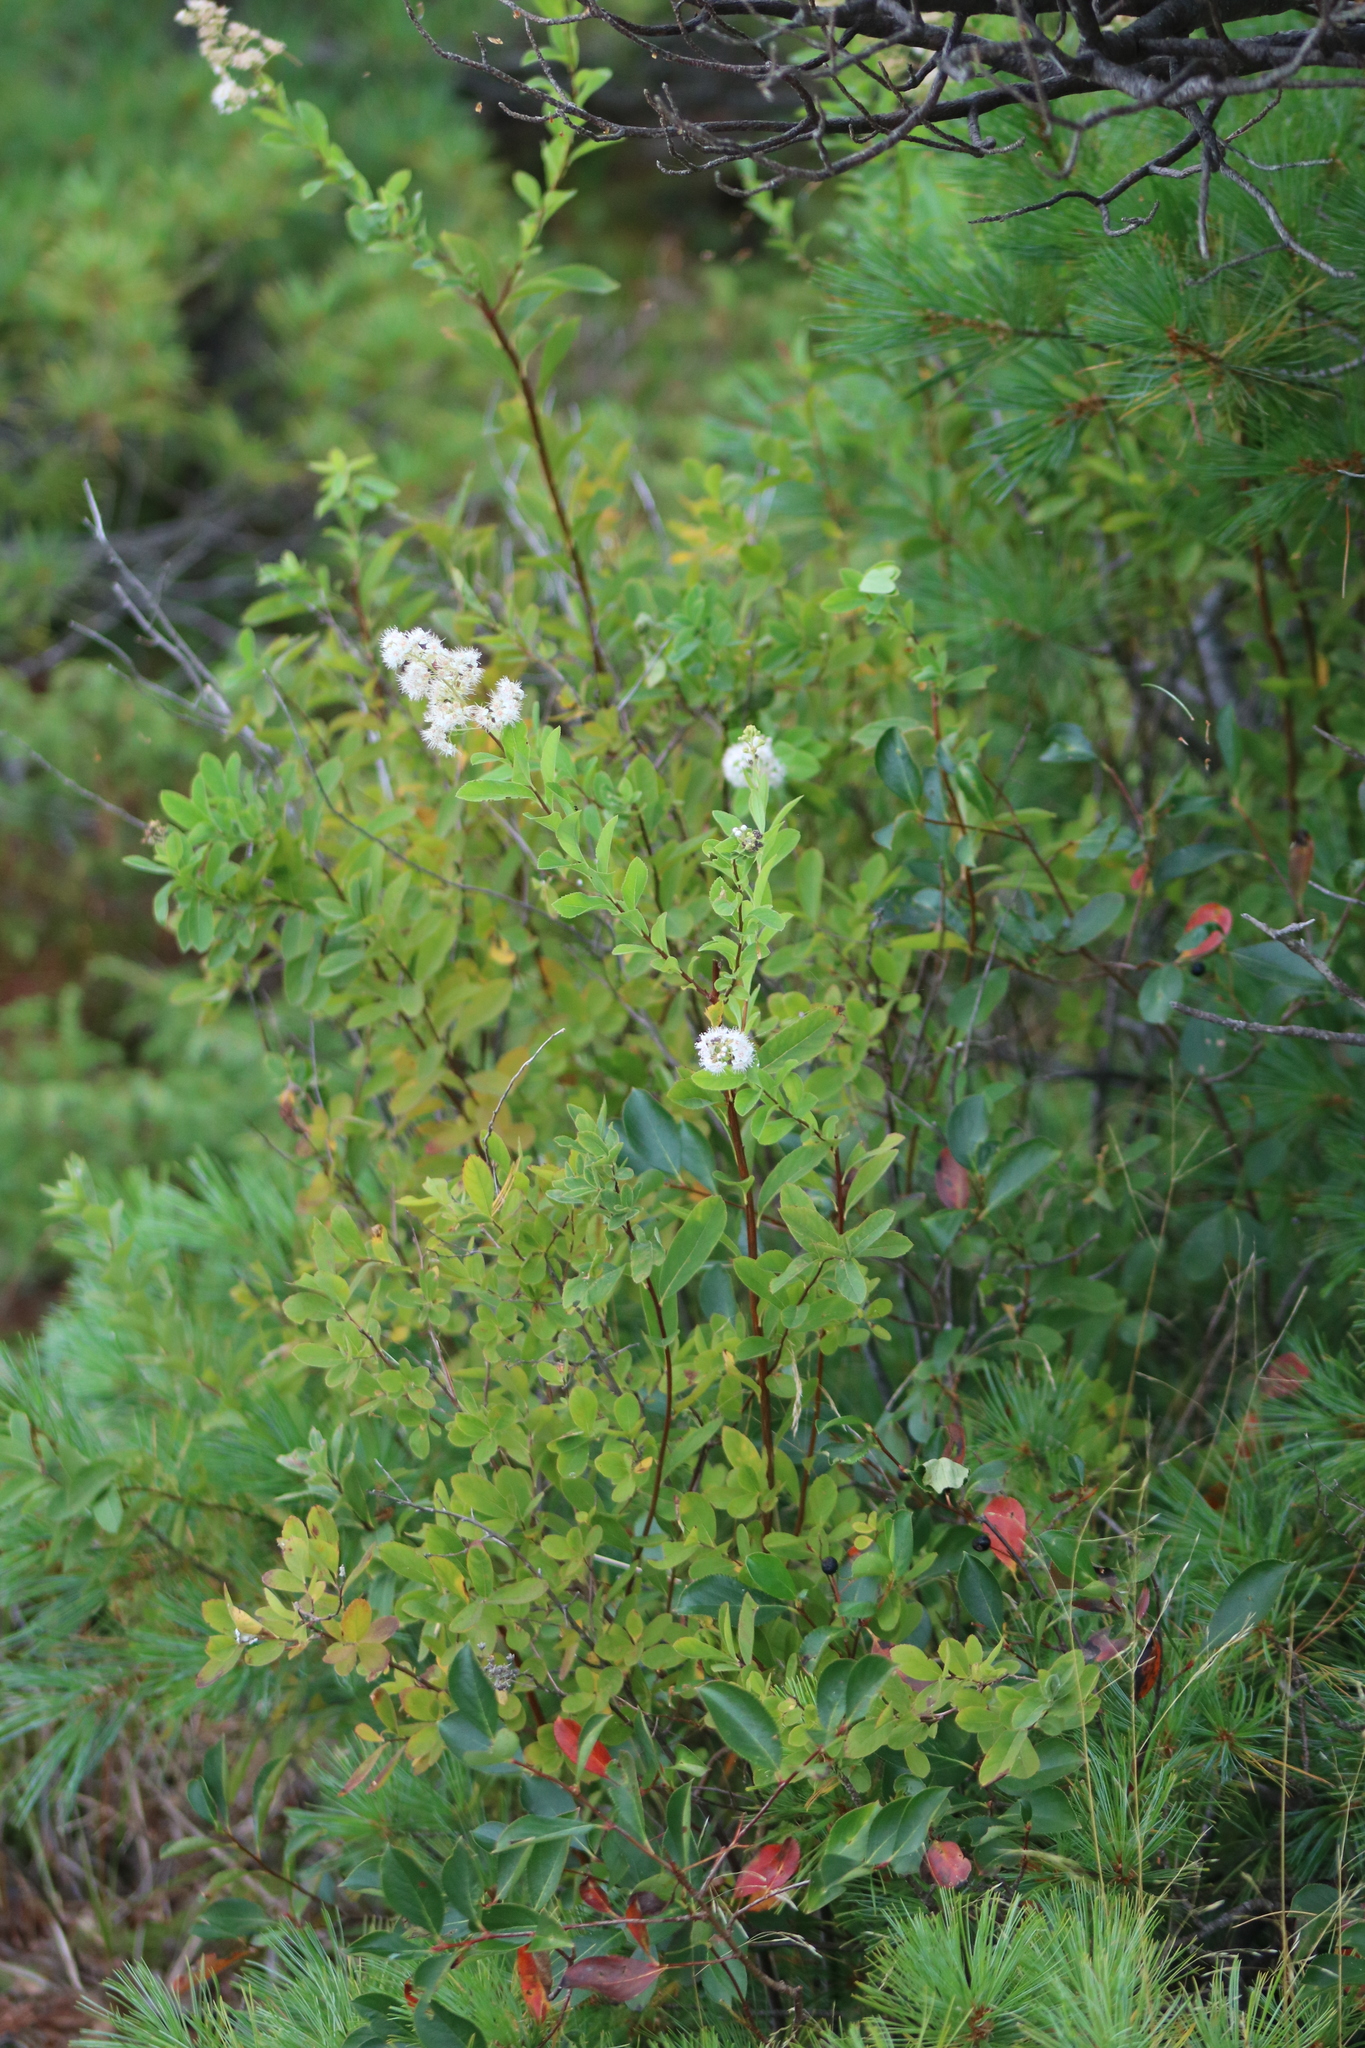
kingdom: Plantae
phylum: Tracheophyta
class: Magnoliopsida
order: Rosales
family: Rosaceae
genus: Spiraea
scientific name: Spiraea alba
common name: Pale bridewort
